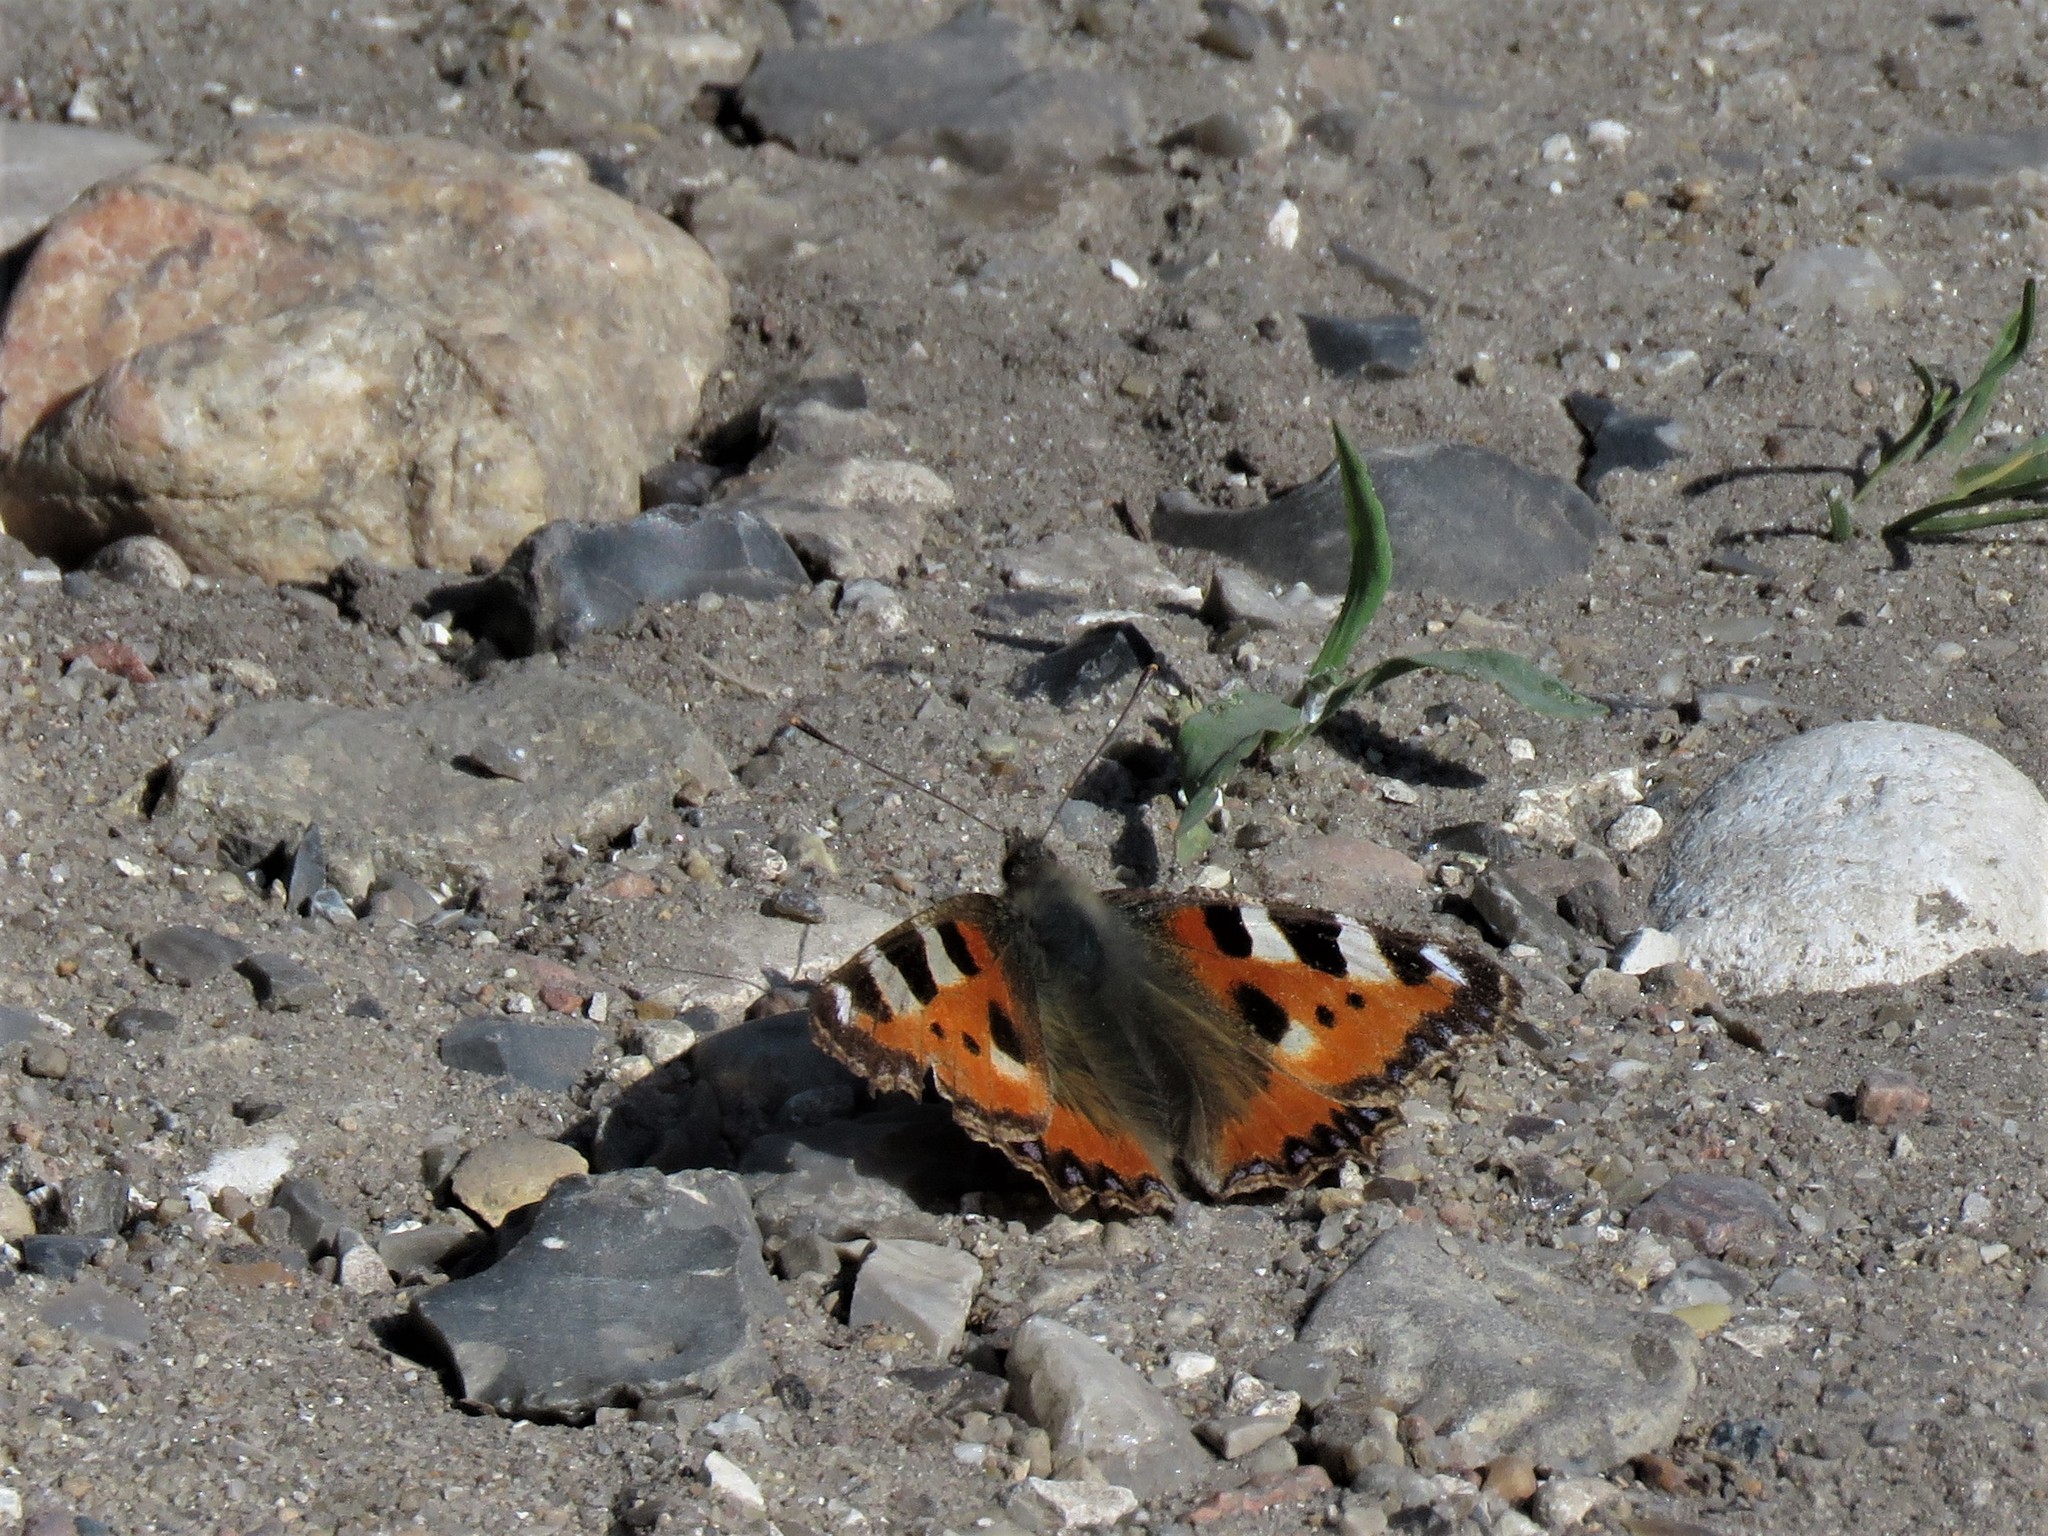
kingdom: Animalia
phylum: Arthropoda
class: Insecta
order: Lepidoptera
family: Nymphalidae
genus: Aglais
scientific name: Aglais urticae
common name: Small tortoiseshell
